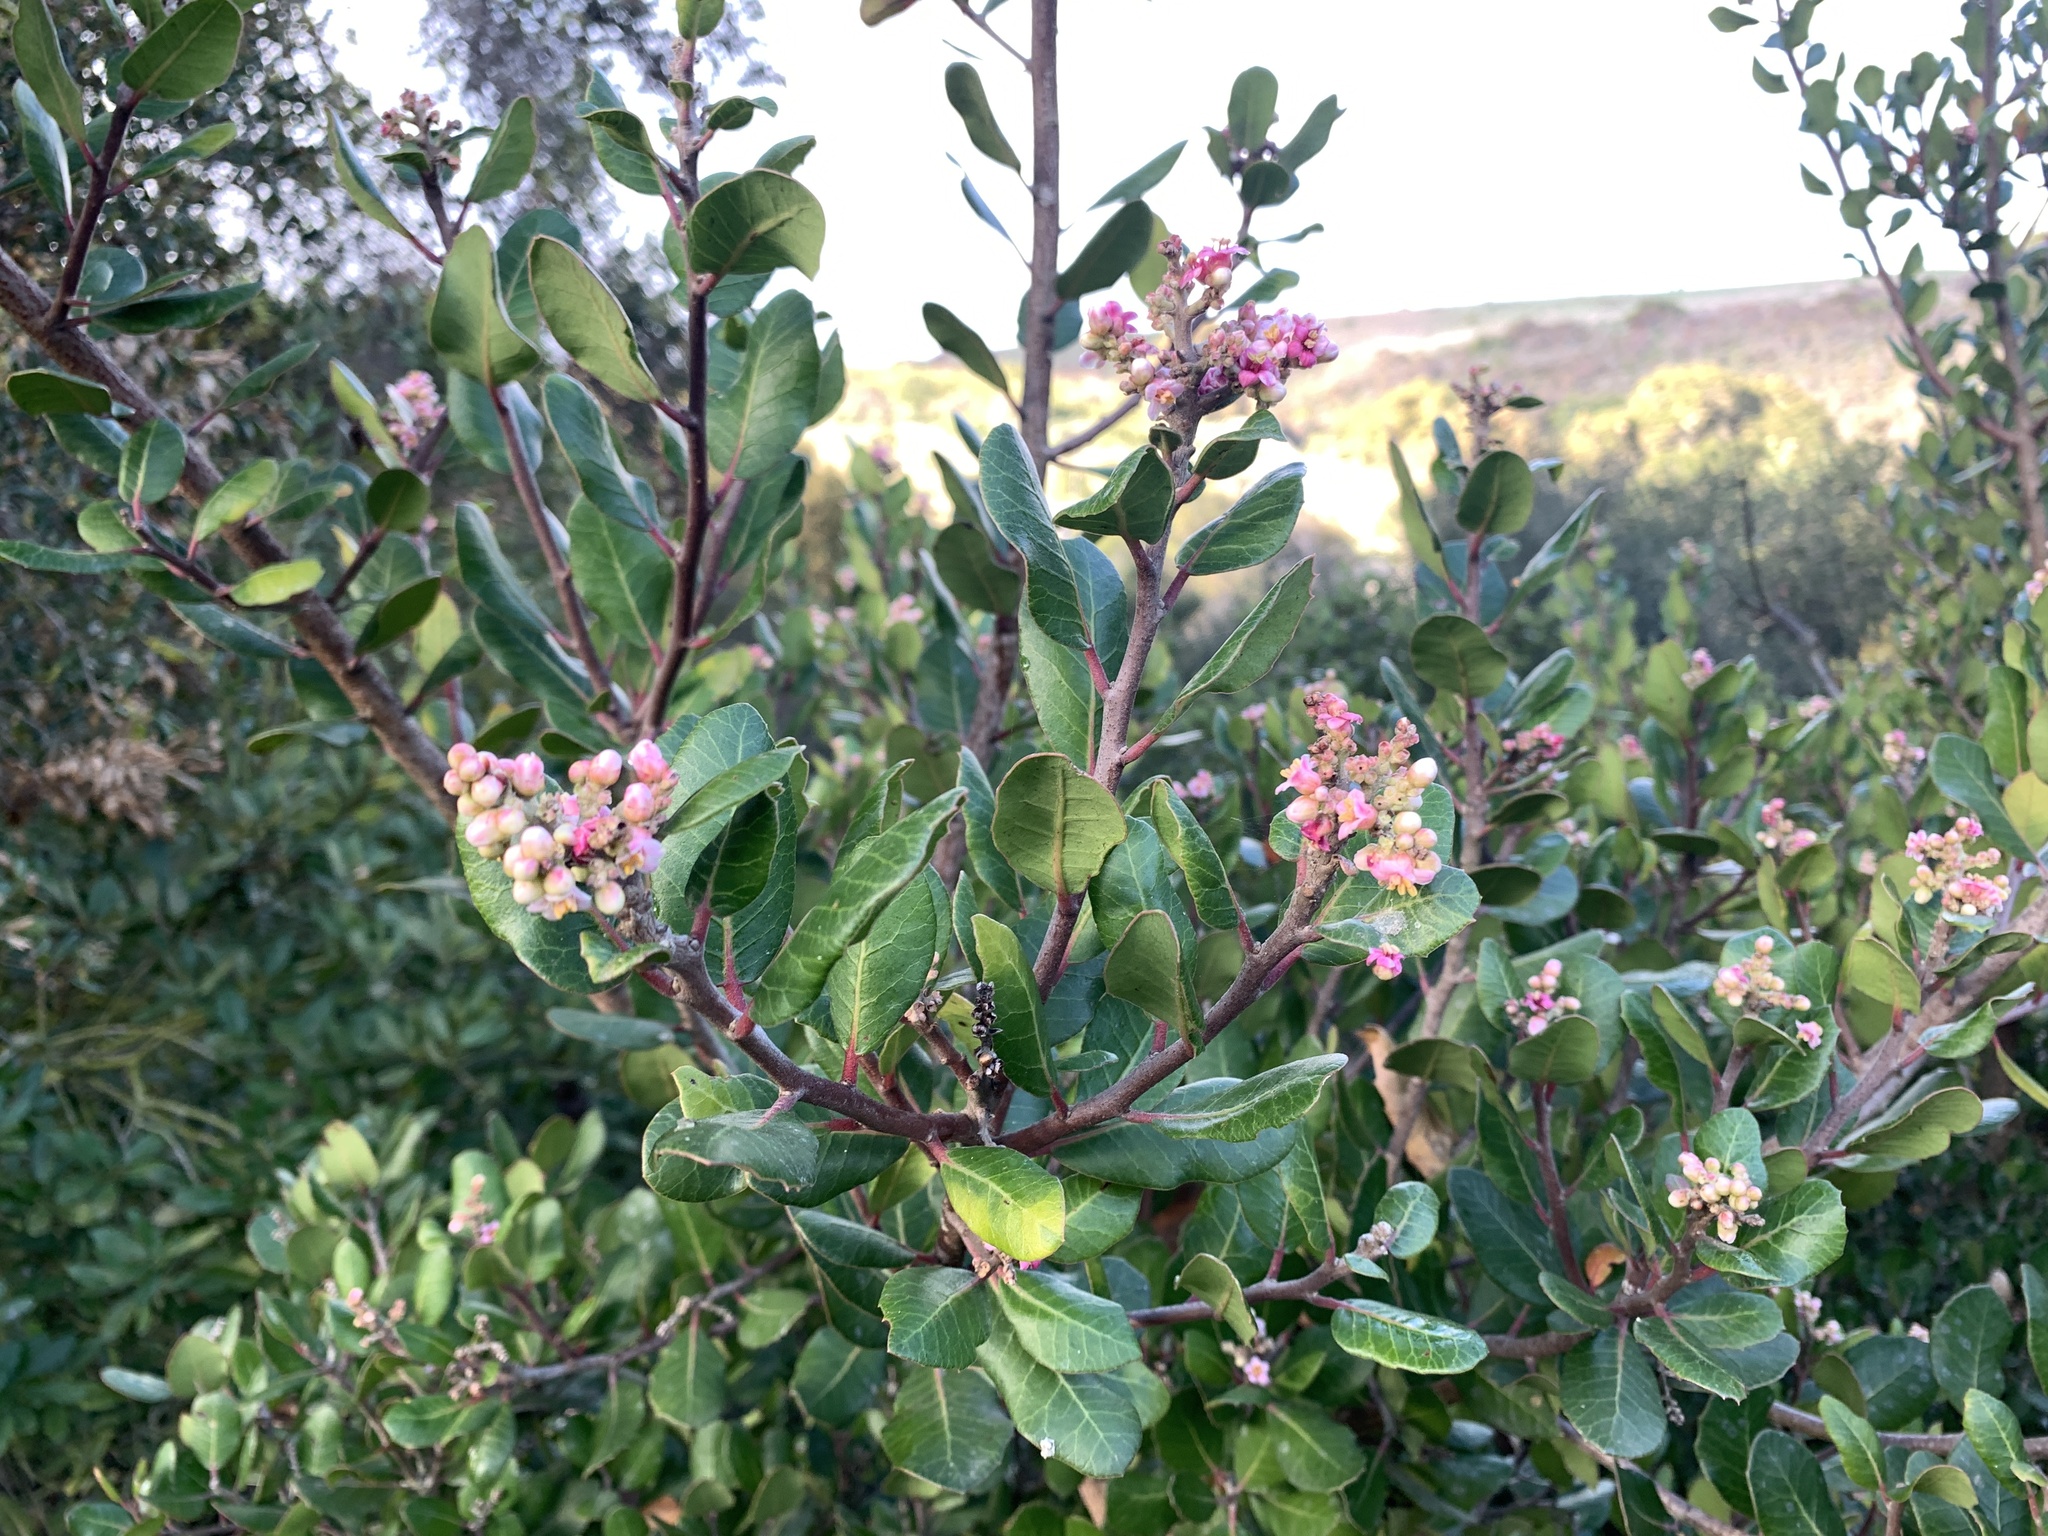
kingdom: Plantae
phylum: Tracheophyta
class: Magnoliopsida
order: Sapindales
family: Anacardiaceae
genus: Rhus
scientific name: Rhus integrifolia
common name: Lemonade sumac
